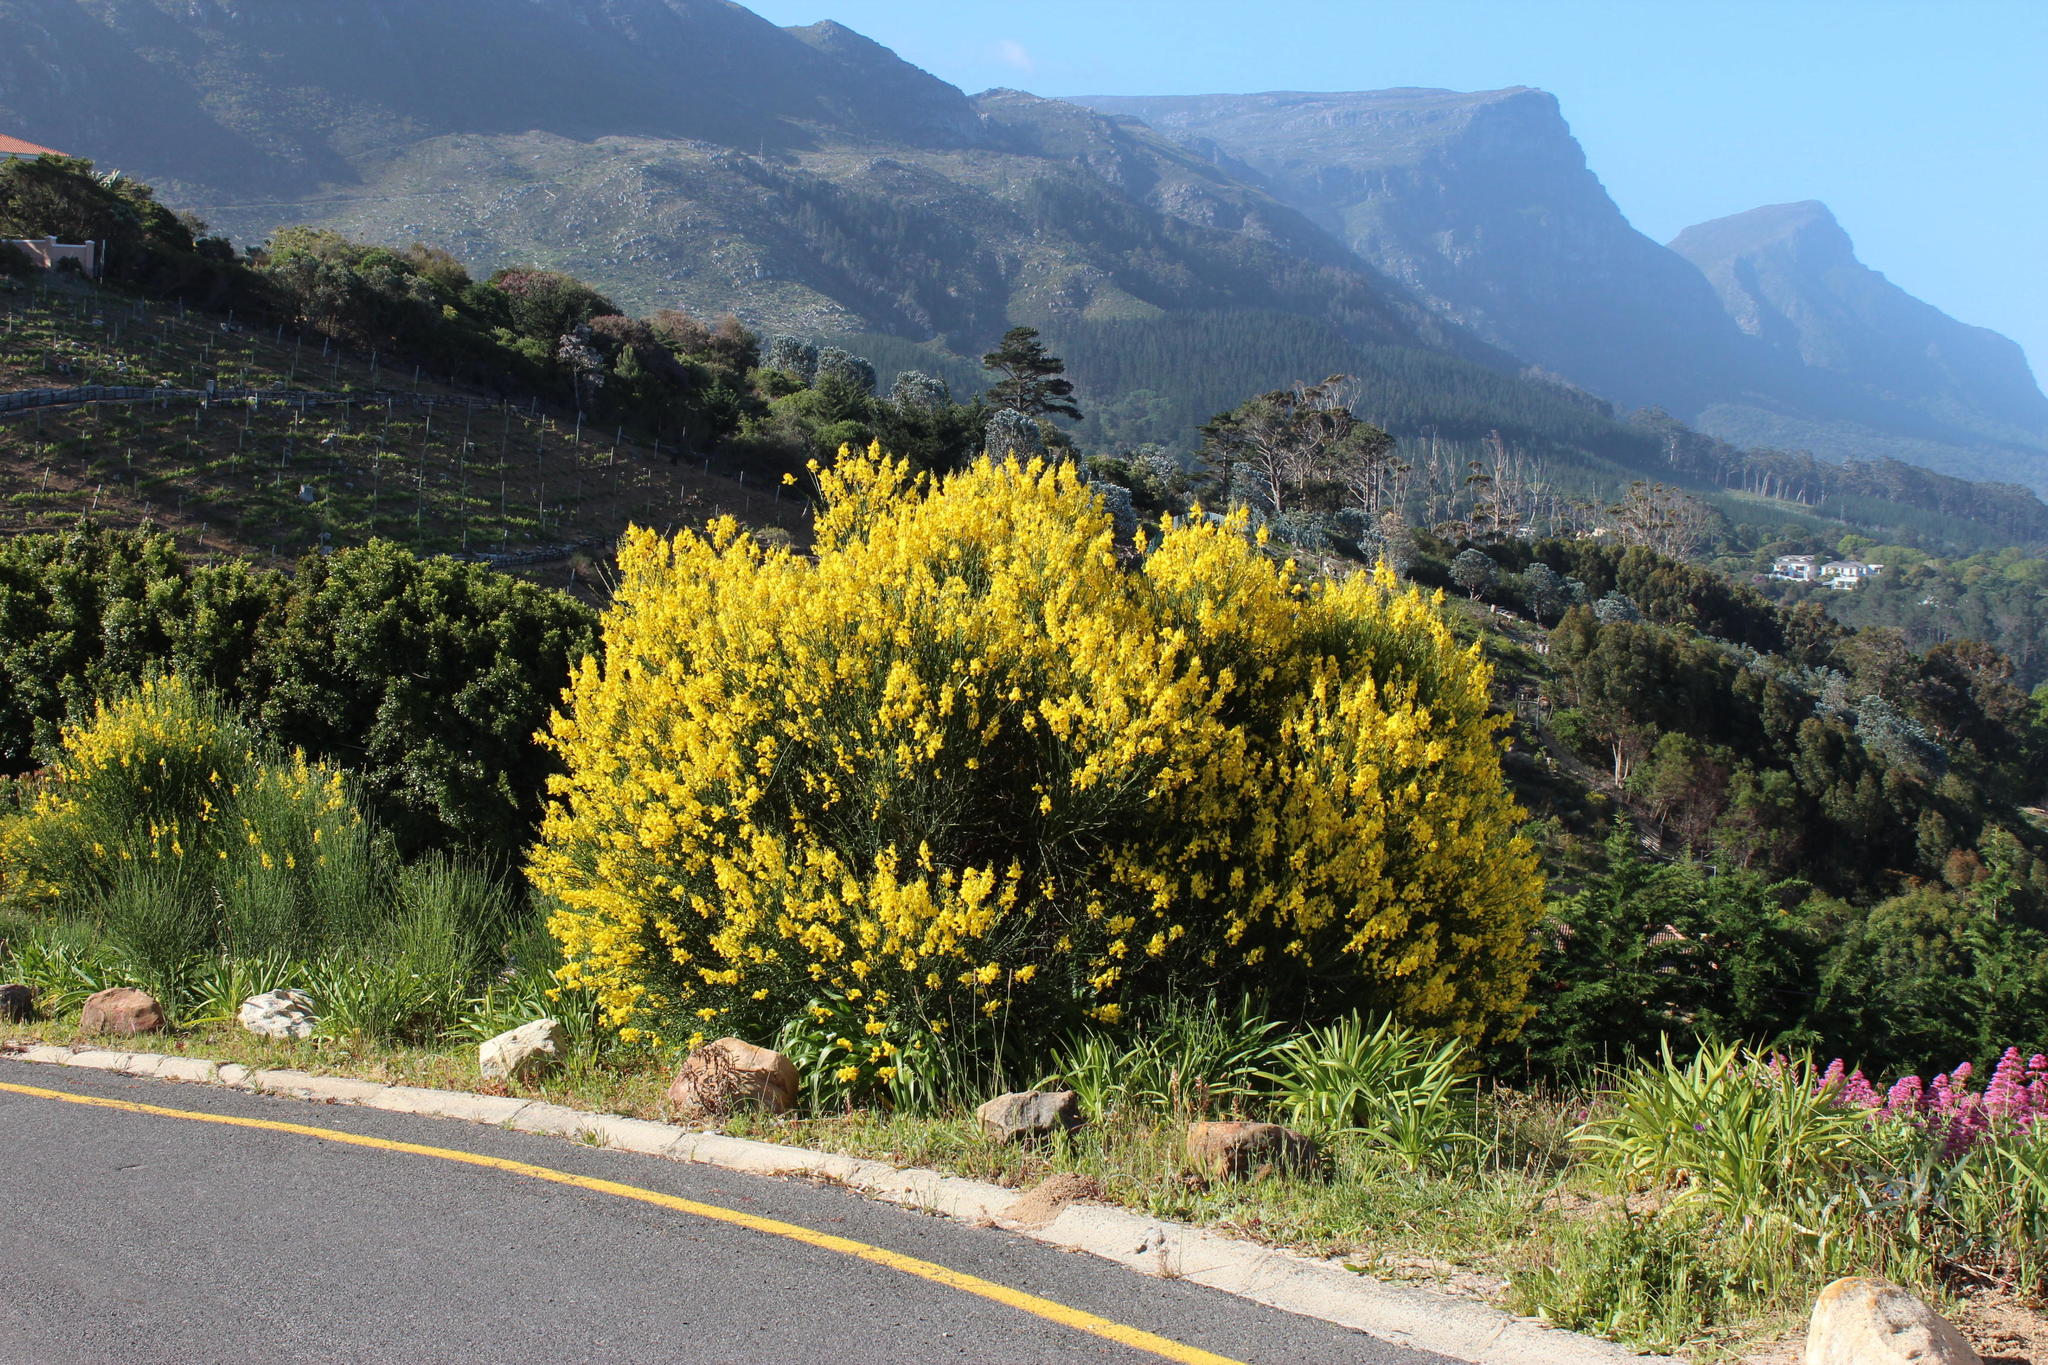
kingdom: Plantae
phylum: Tracheophyta
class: Magnoliopsida
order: Fabales
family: Fabaceae
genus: Spartium
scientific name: Spartium junceum
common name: Spanish broom
